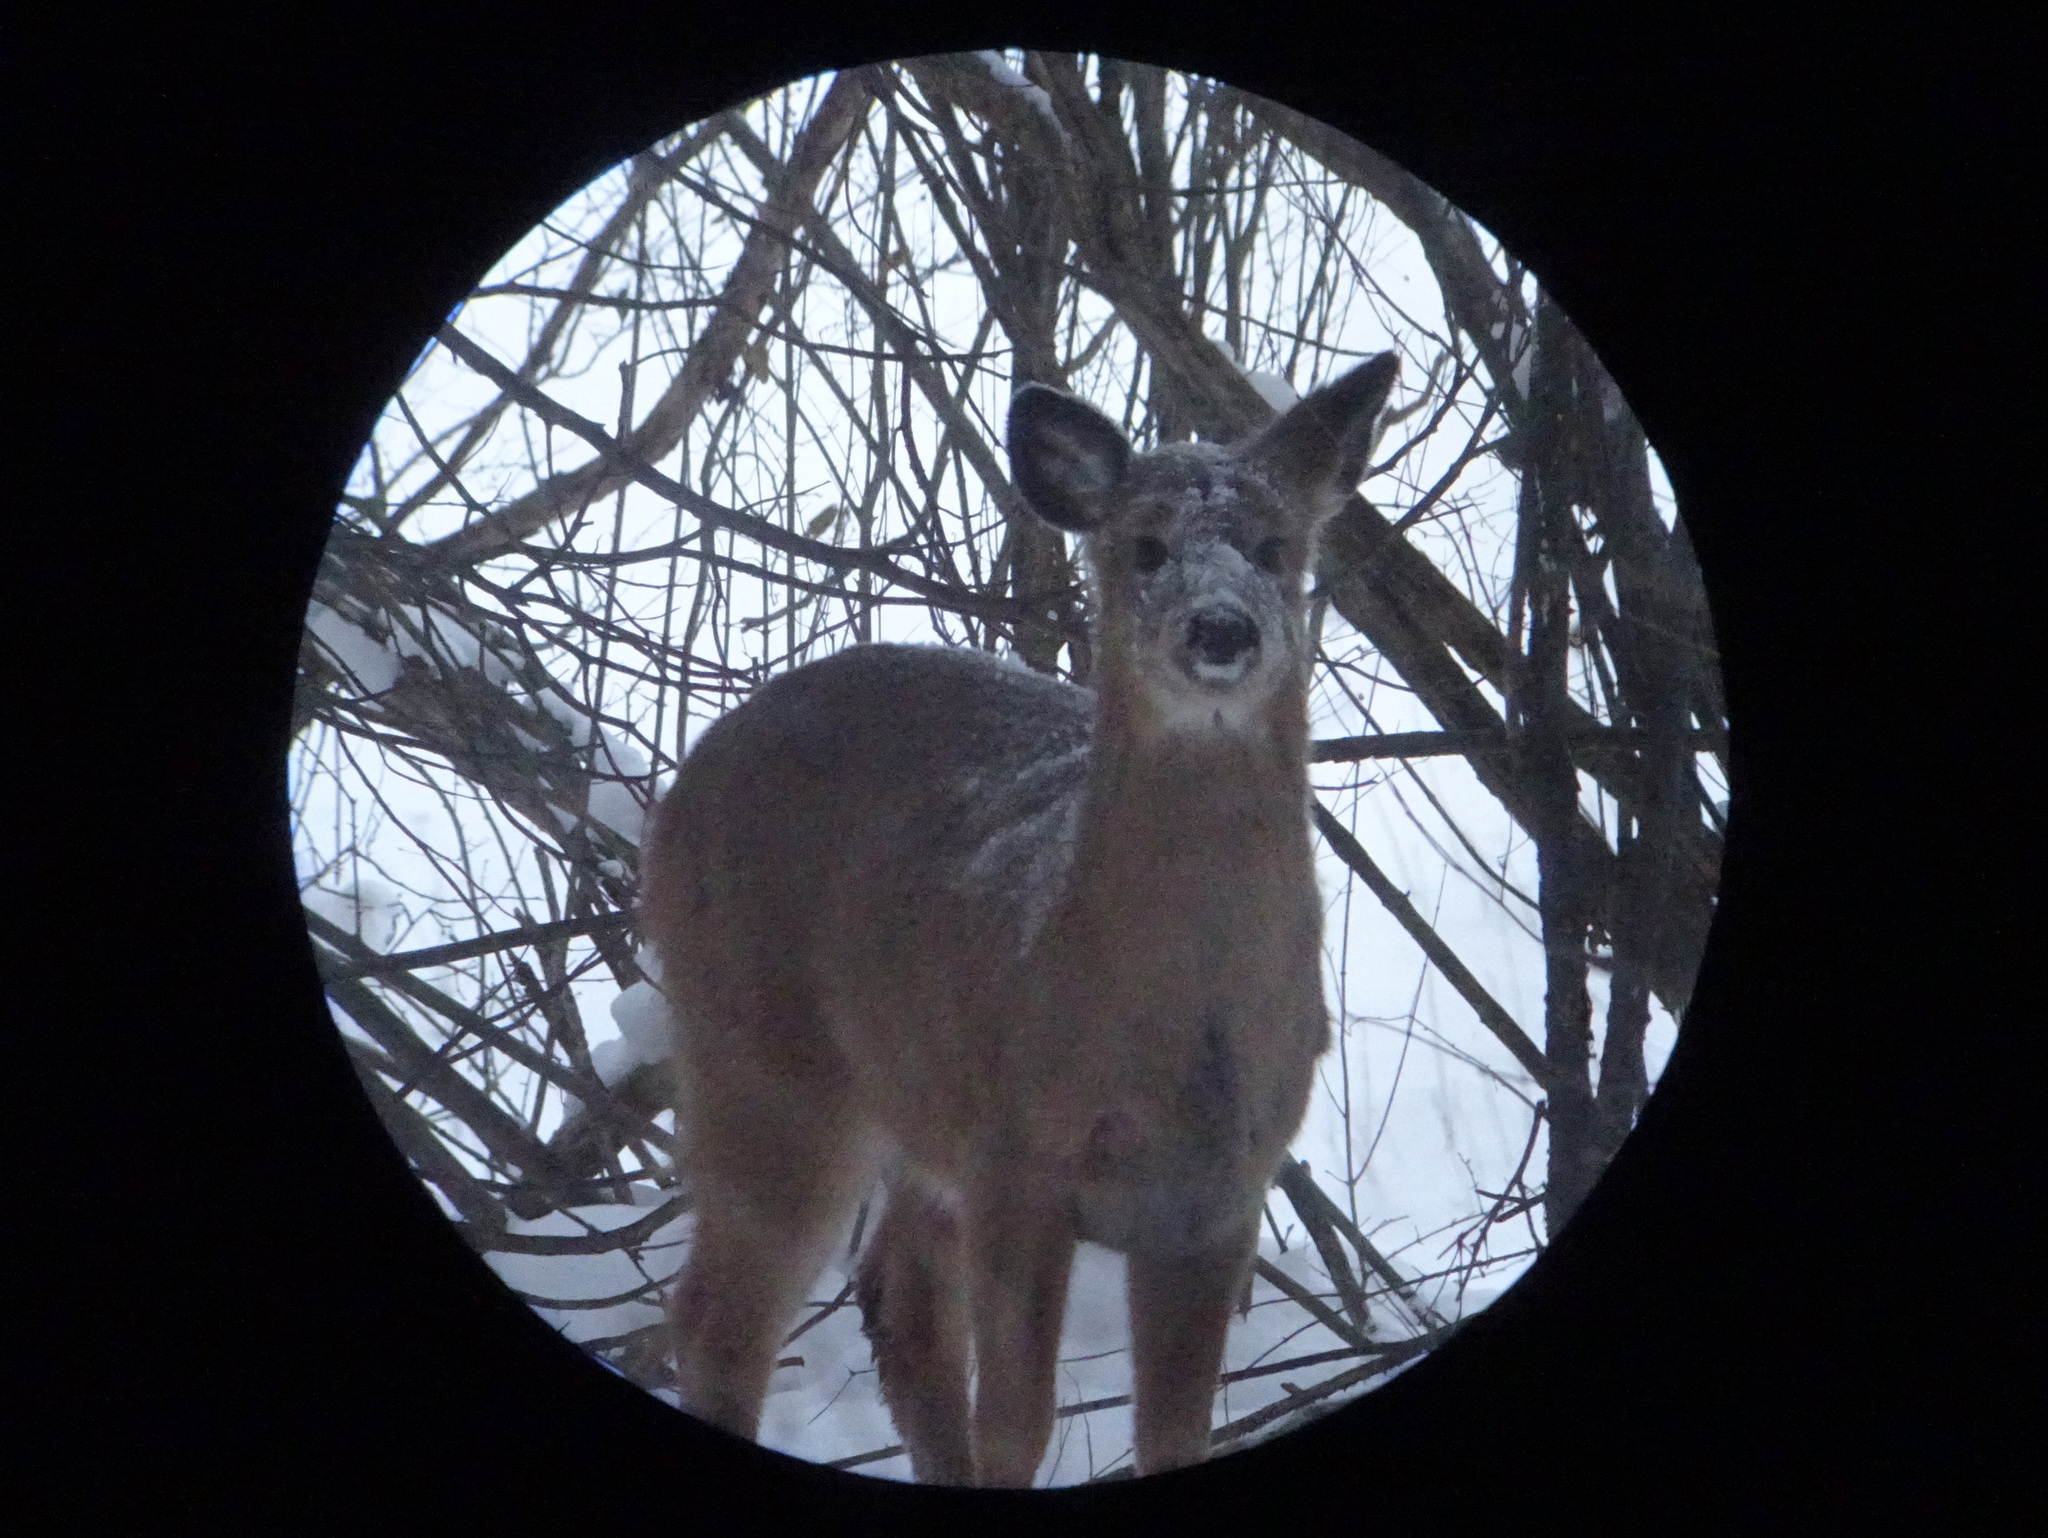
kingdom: Animalia
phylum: Chordata
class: Mammalia
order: Artiodactyla
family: Cervidae
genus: Odocoileus
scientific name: Odocoileus virginianus
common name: White-tailed deer
